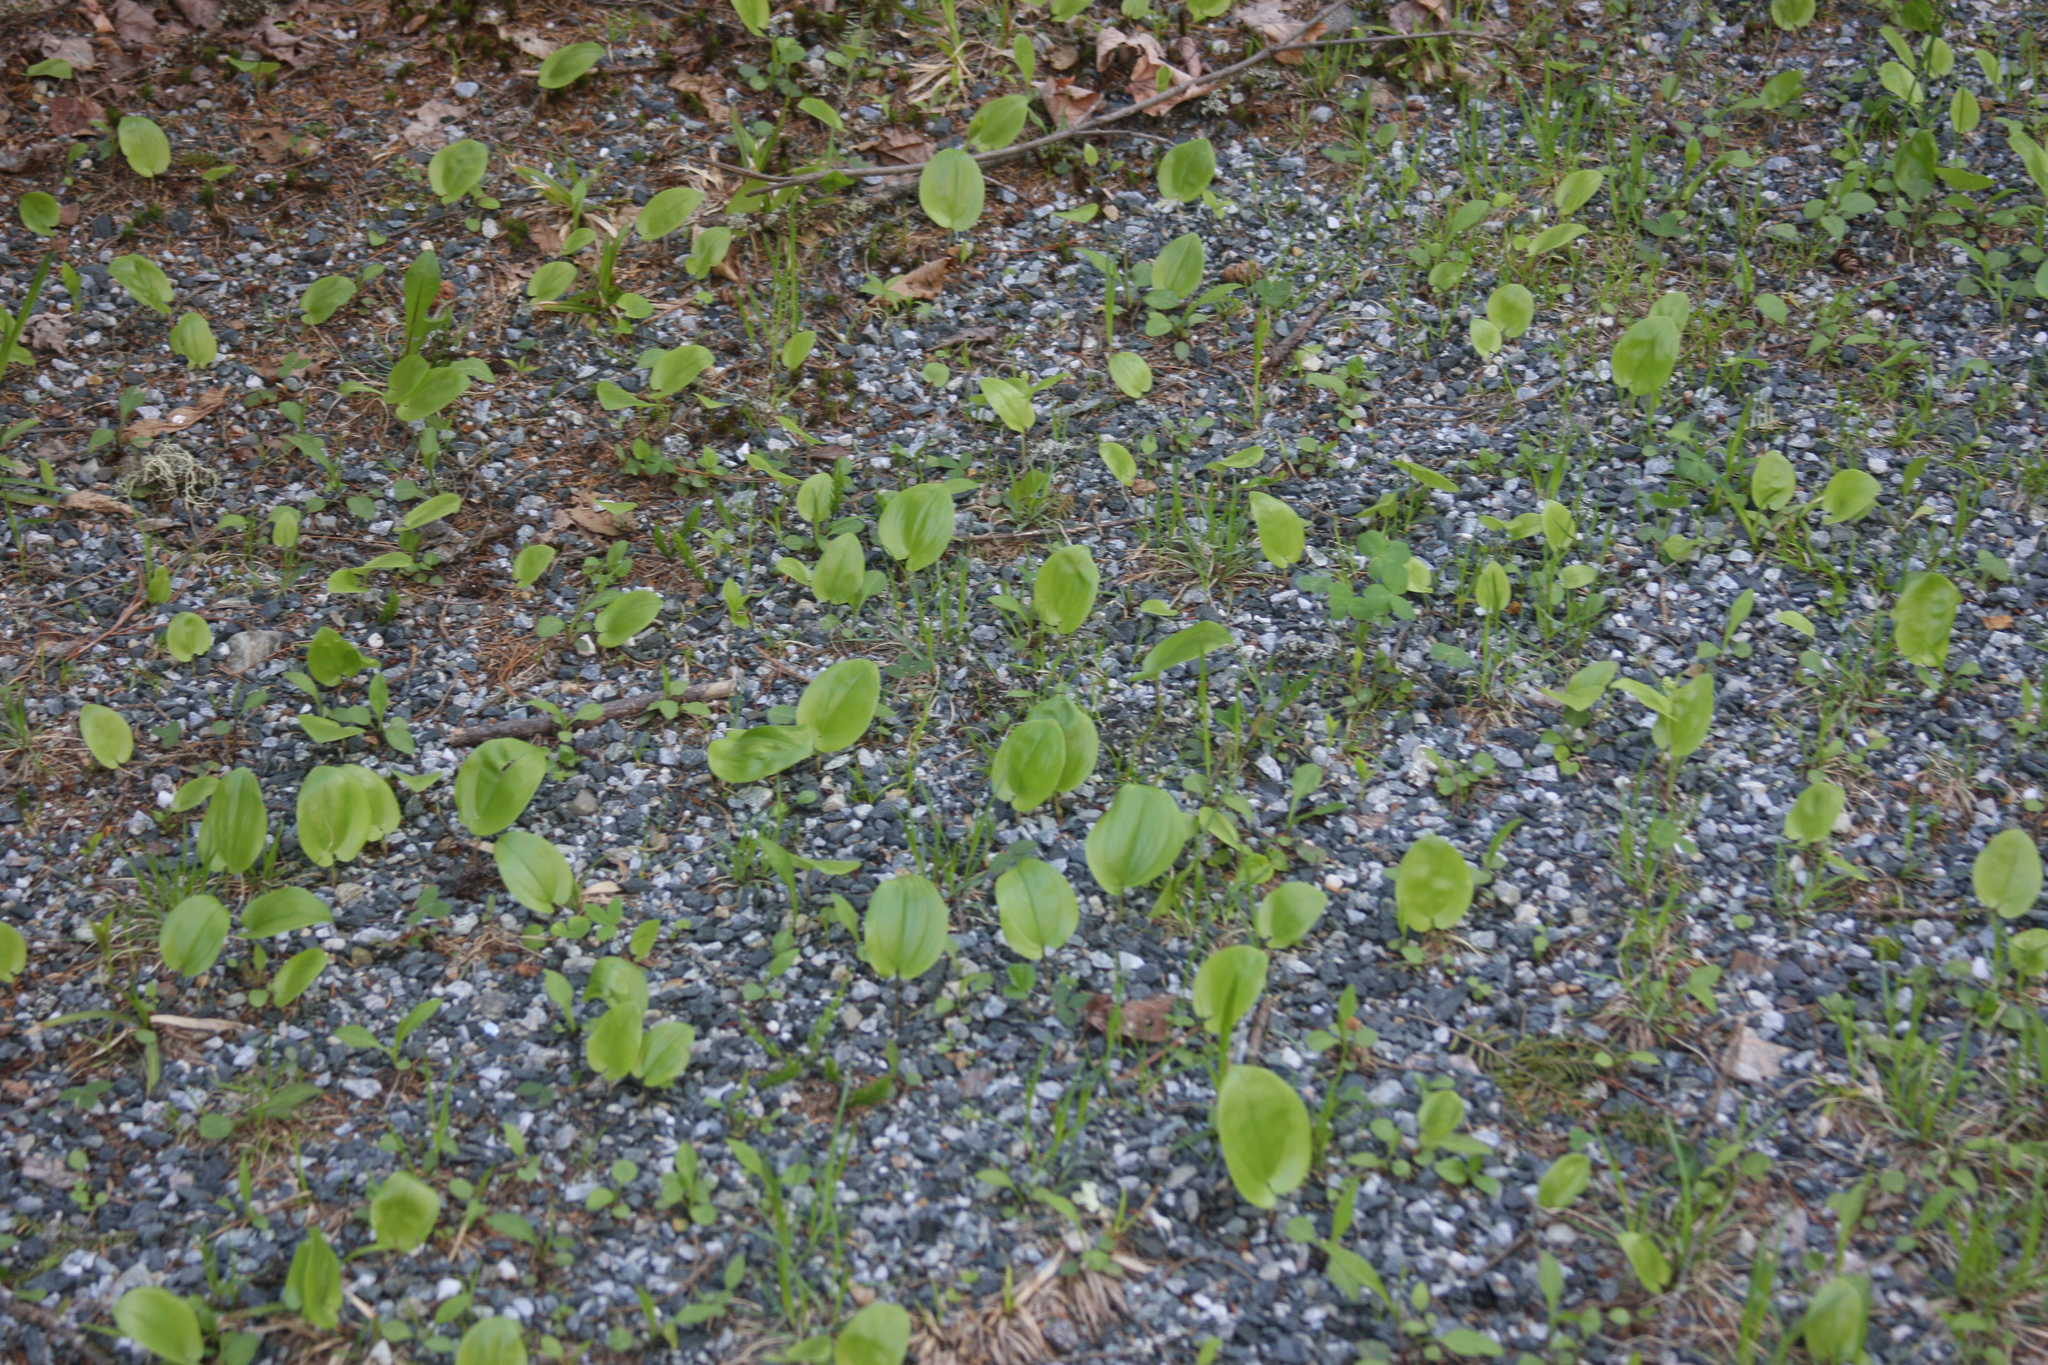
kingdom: Plantae
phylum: Tracheophyta
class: Liliopsida
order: Asparagales
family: Asparagaceae
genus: Maianthemum
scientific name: Maianthemum canadense
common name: False lily-of-the-valley
